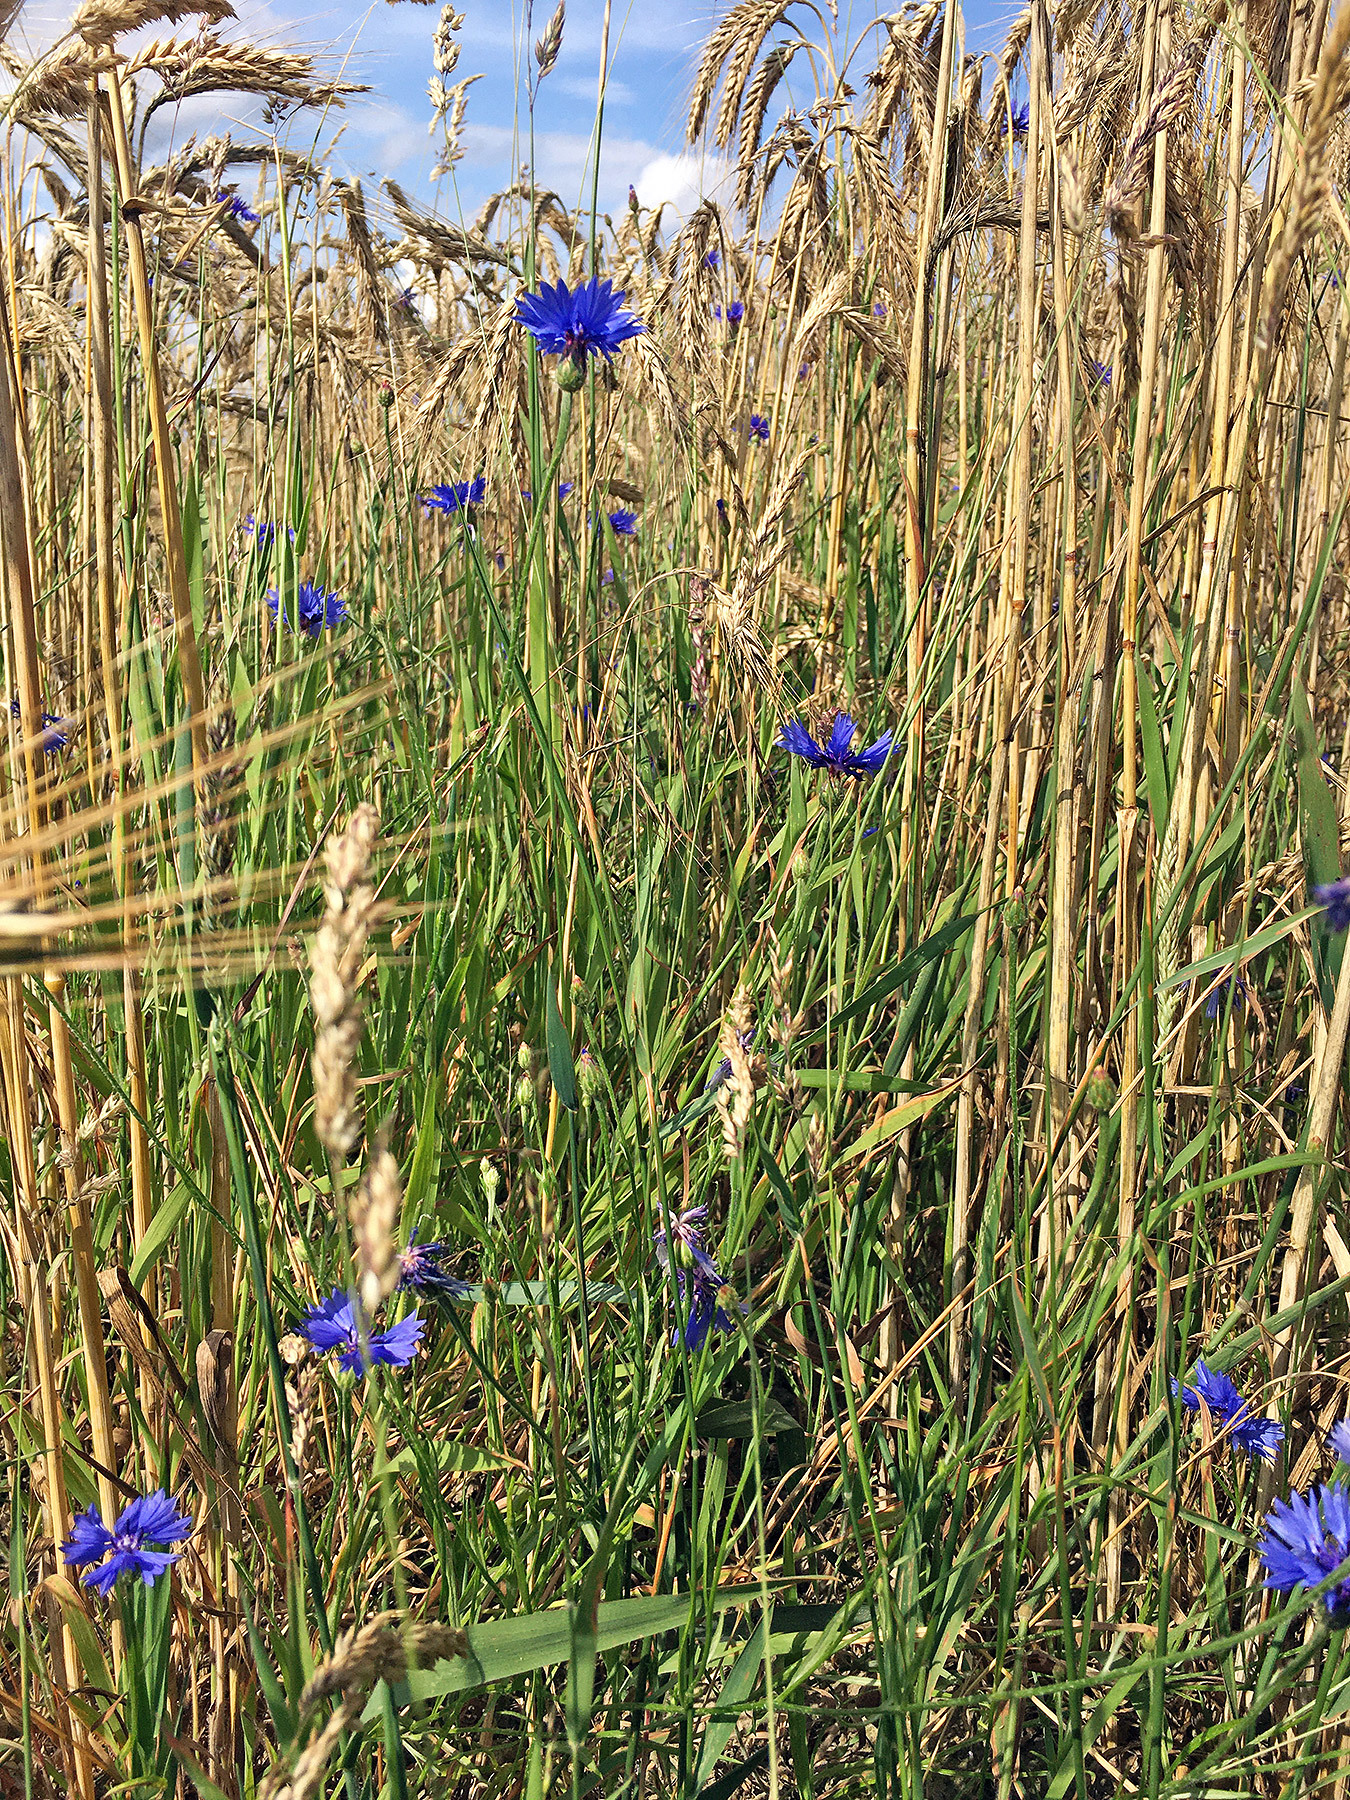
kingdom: Plantae
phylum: Tracheophyta
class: Magnoliopsida
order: Asterales
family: Asteraceae
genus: Centaurea
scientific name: Centaurea cyanus
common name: Cornflower
